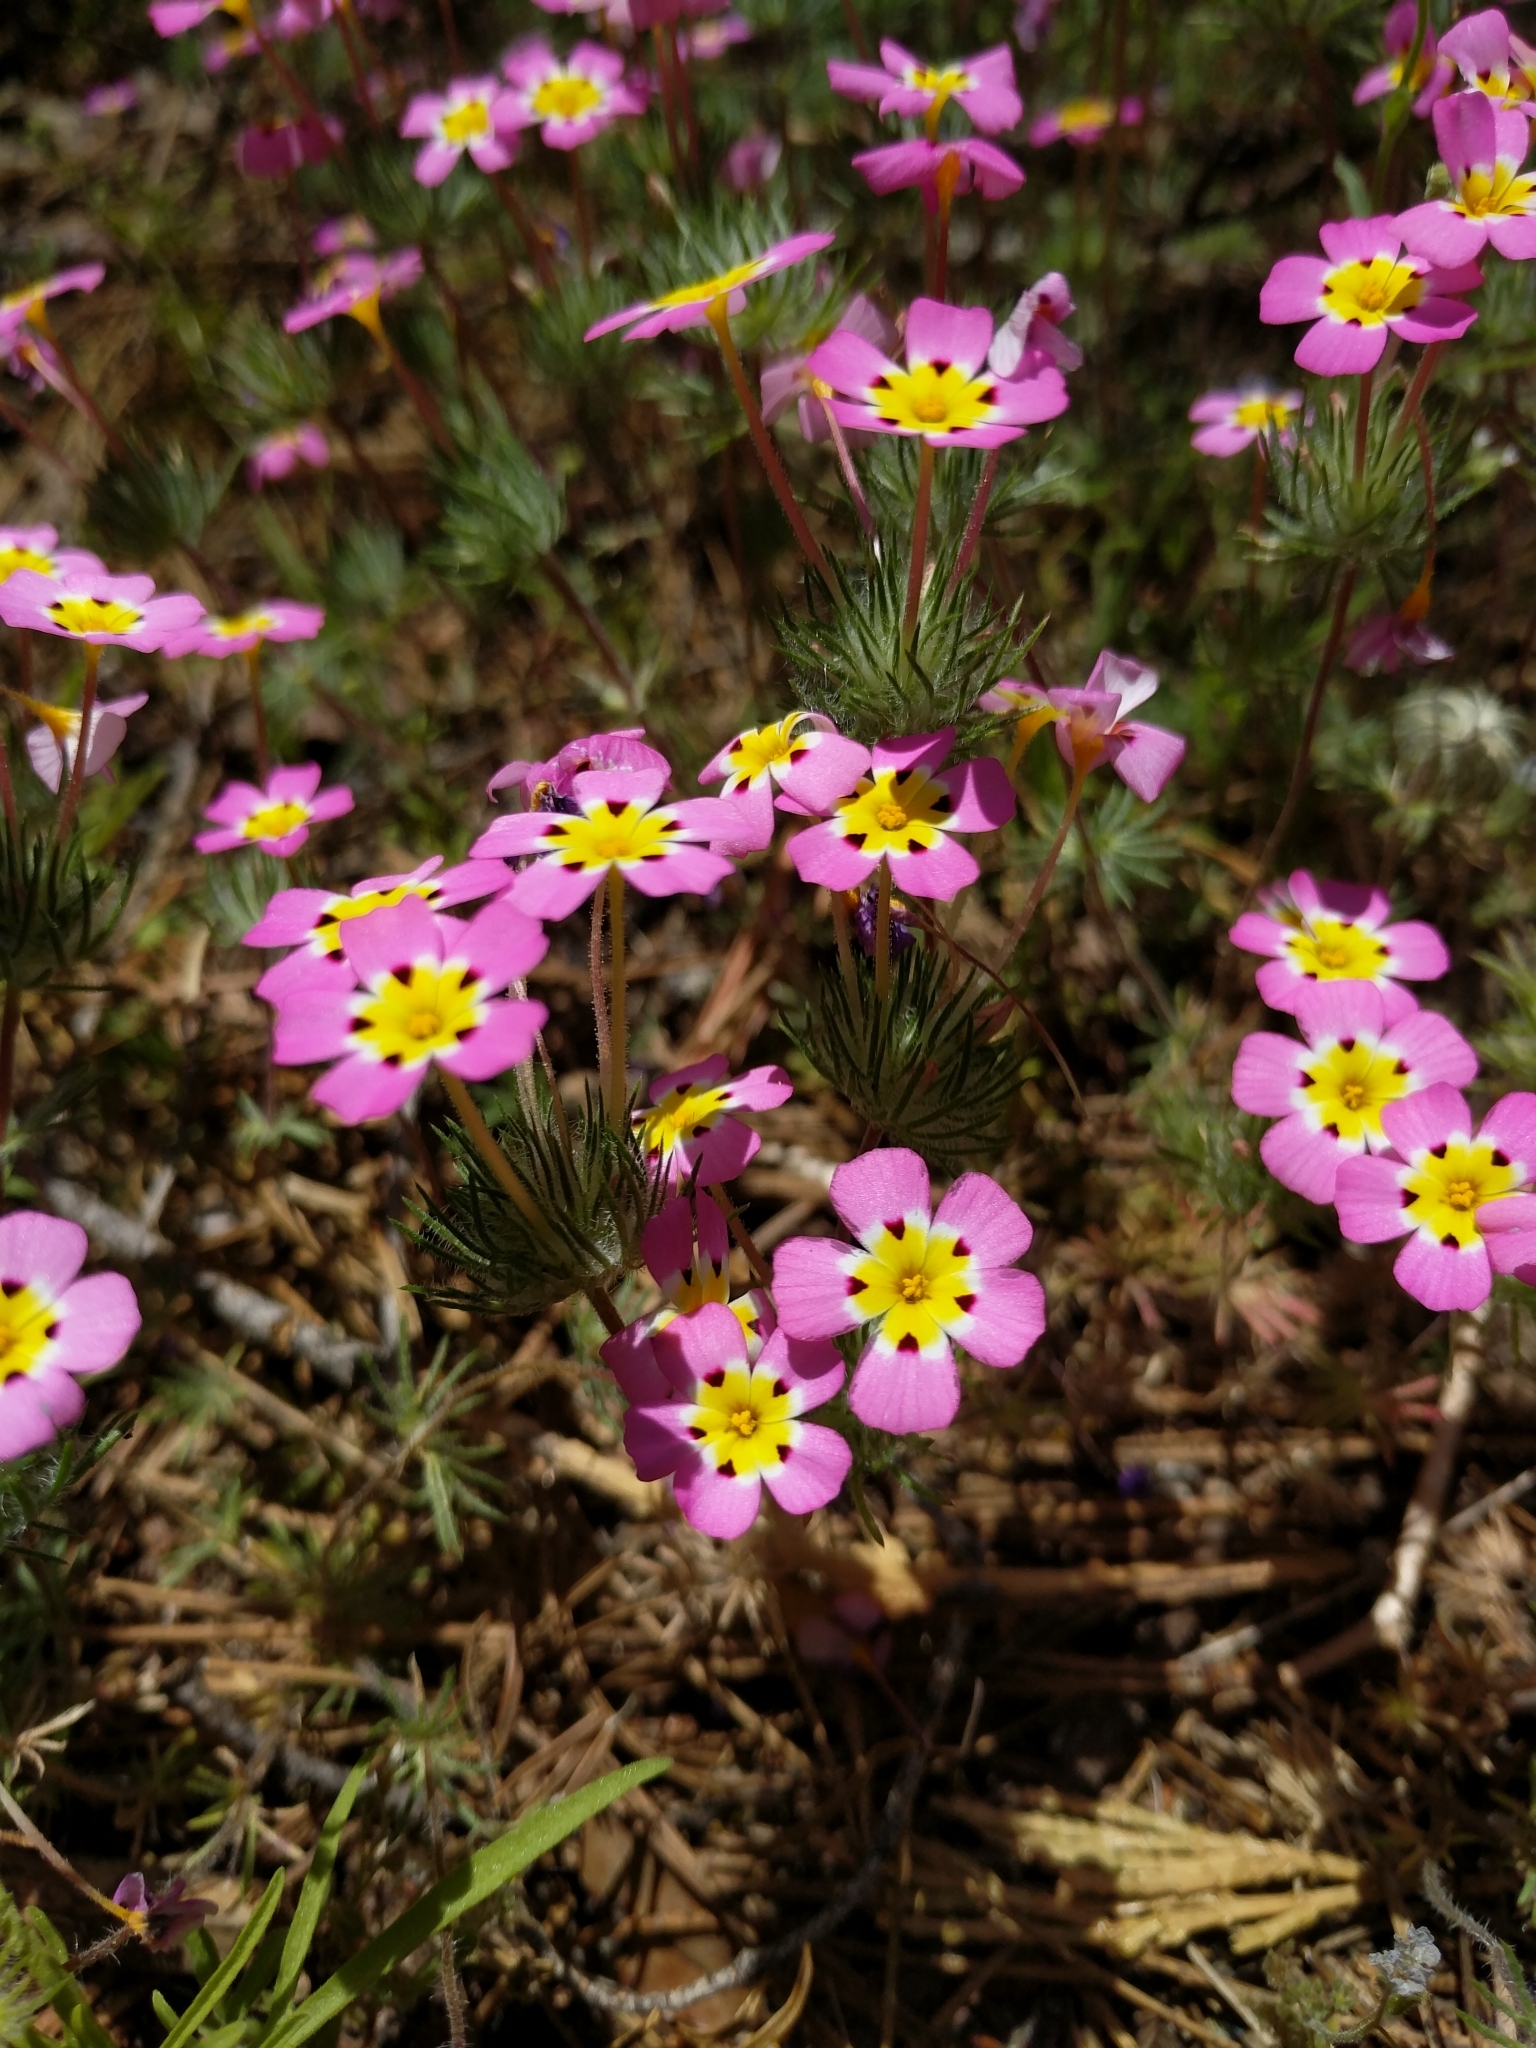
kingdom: Plantae
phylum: Tracheophyta
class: Magnoliopsida
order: Ericales
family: Polemoniaceae
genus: Leptosiphon
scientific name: Leptosiphon ciliatus
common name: Whiskerbrush
